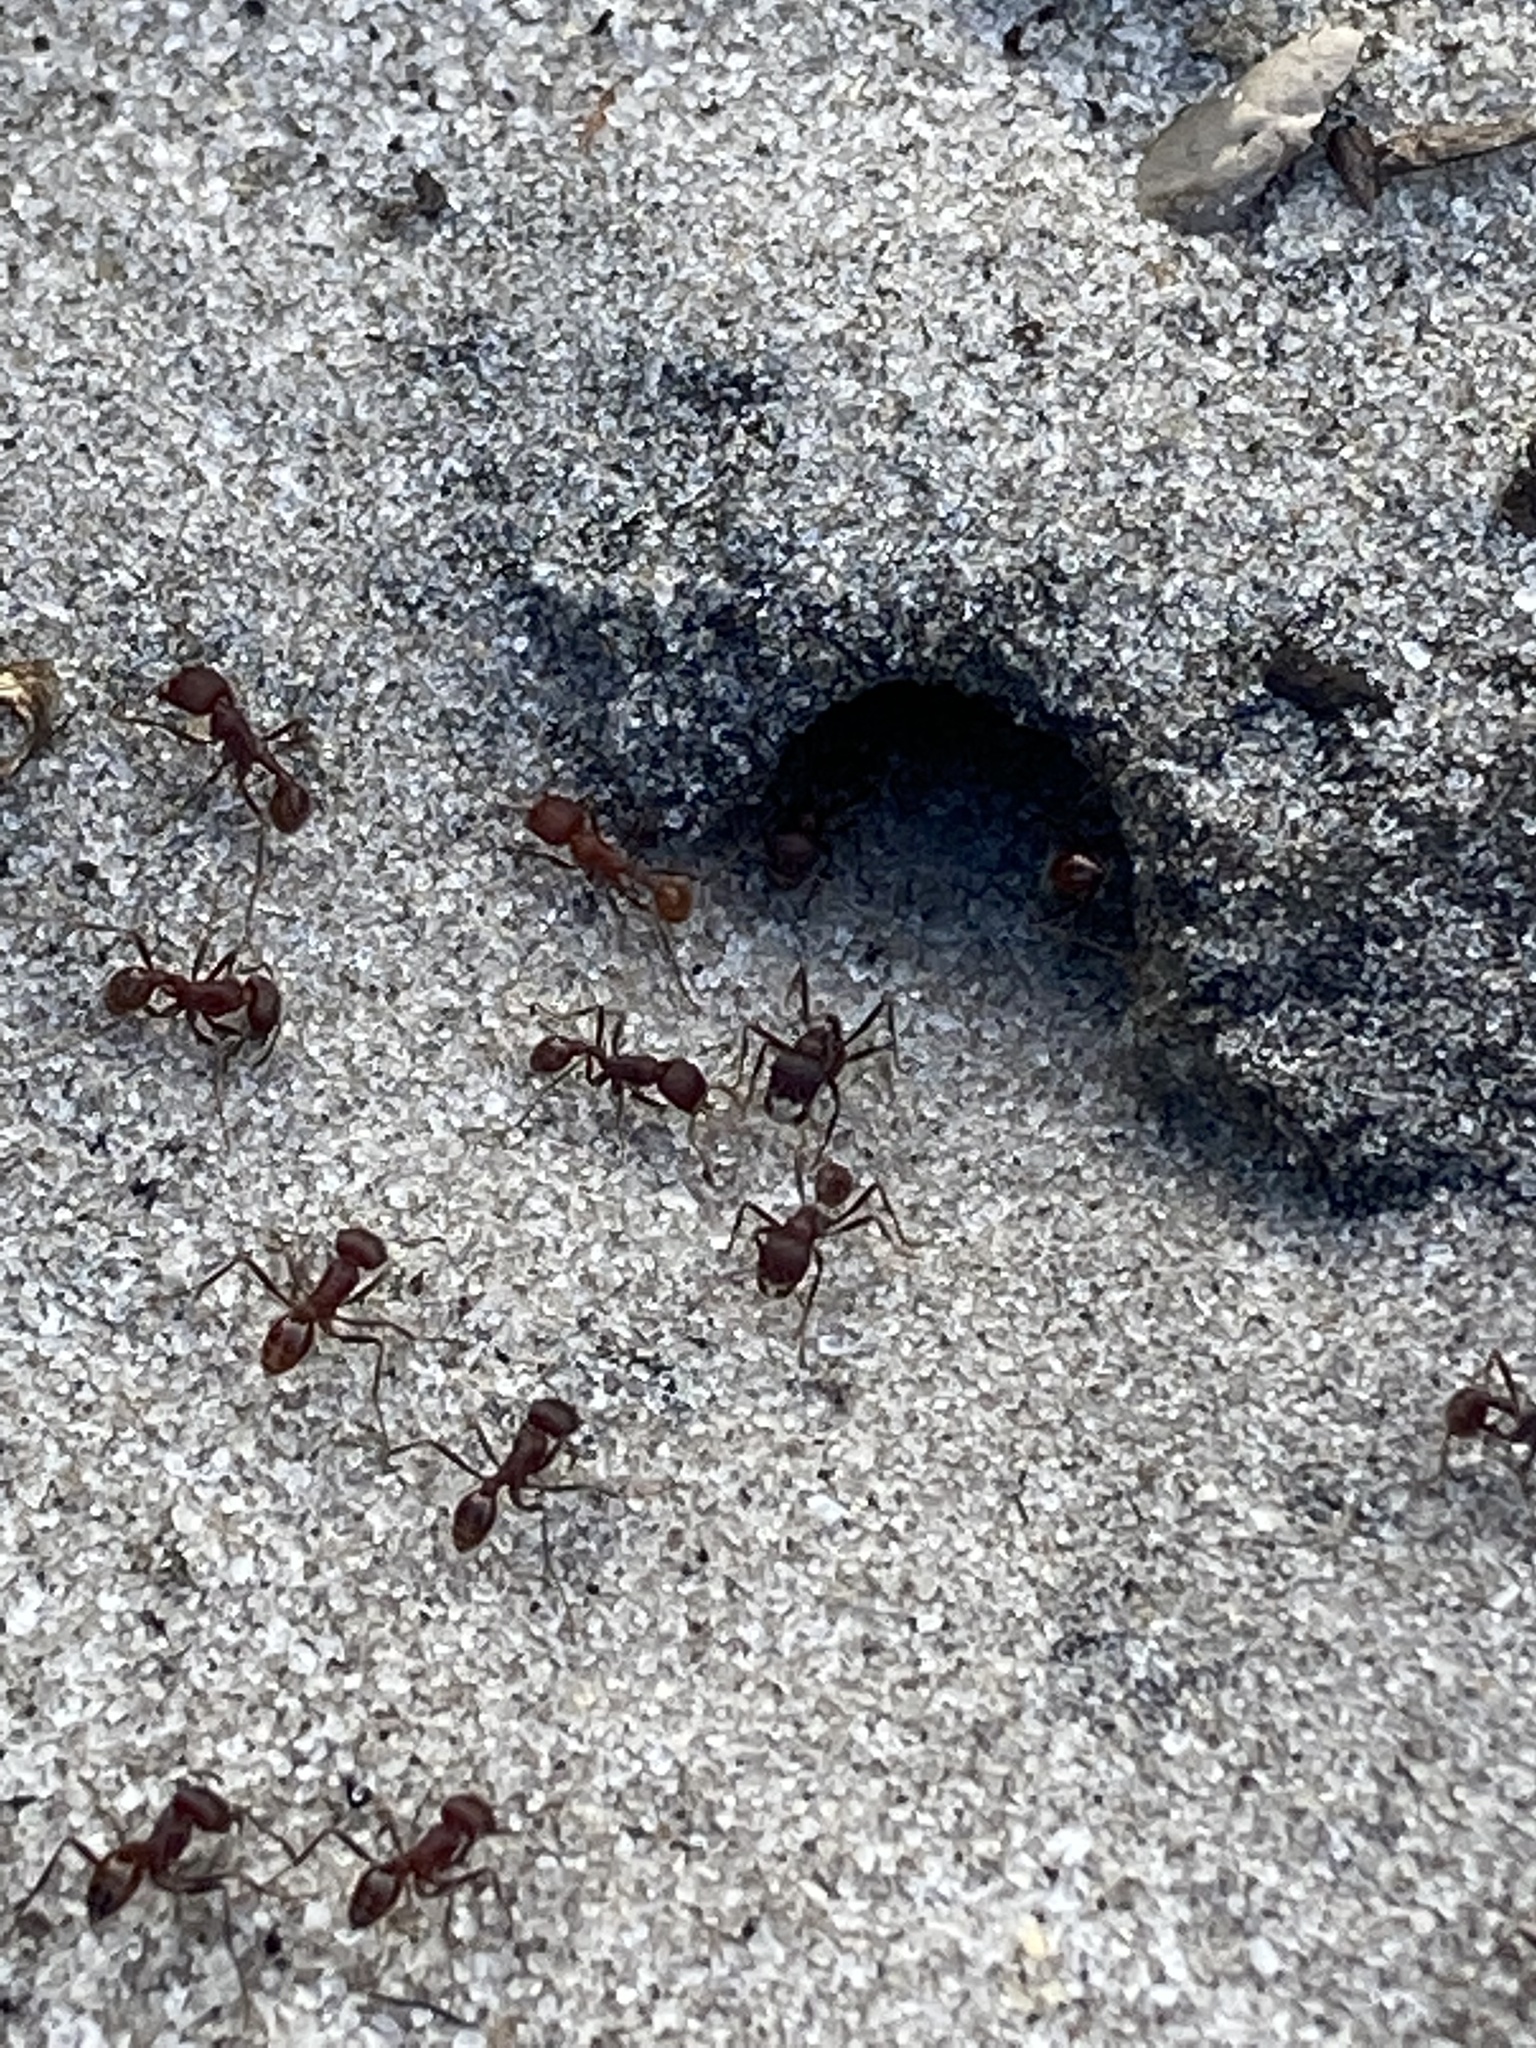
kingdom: Animalia
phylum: Arthropoda
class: Insecta
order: Hymenoptera
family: Formicidae
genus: Pogonomyrmex
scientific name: Pogonomyrmex badius
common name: Florida harvester ant
